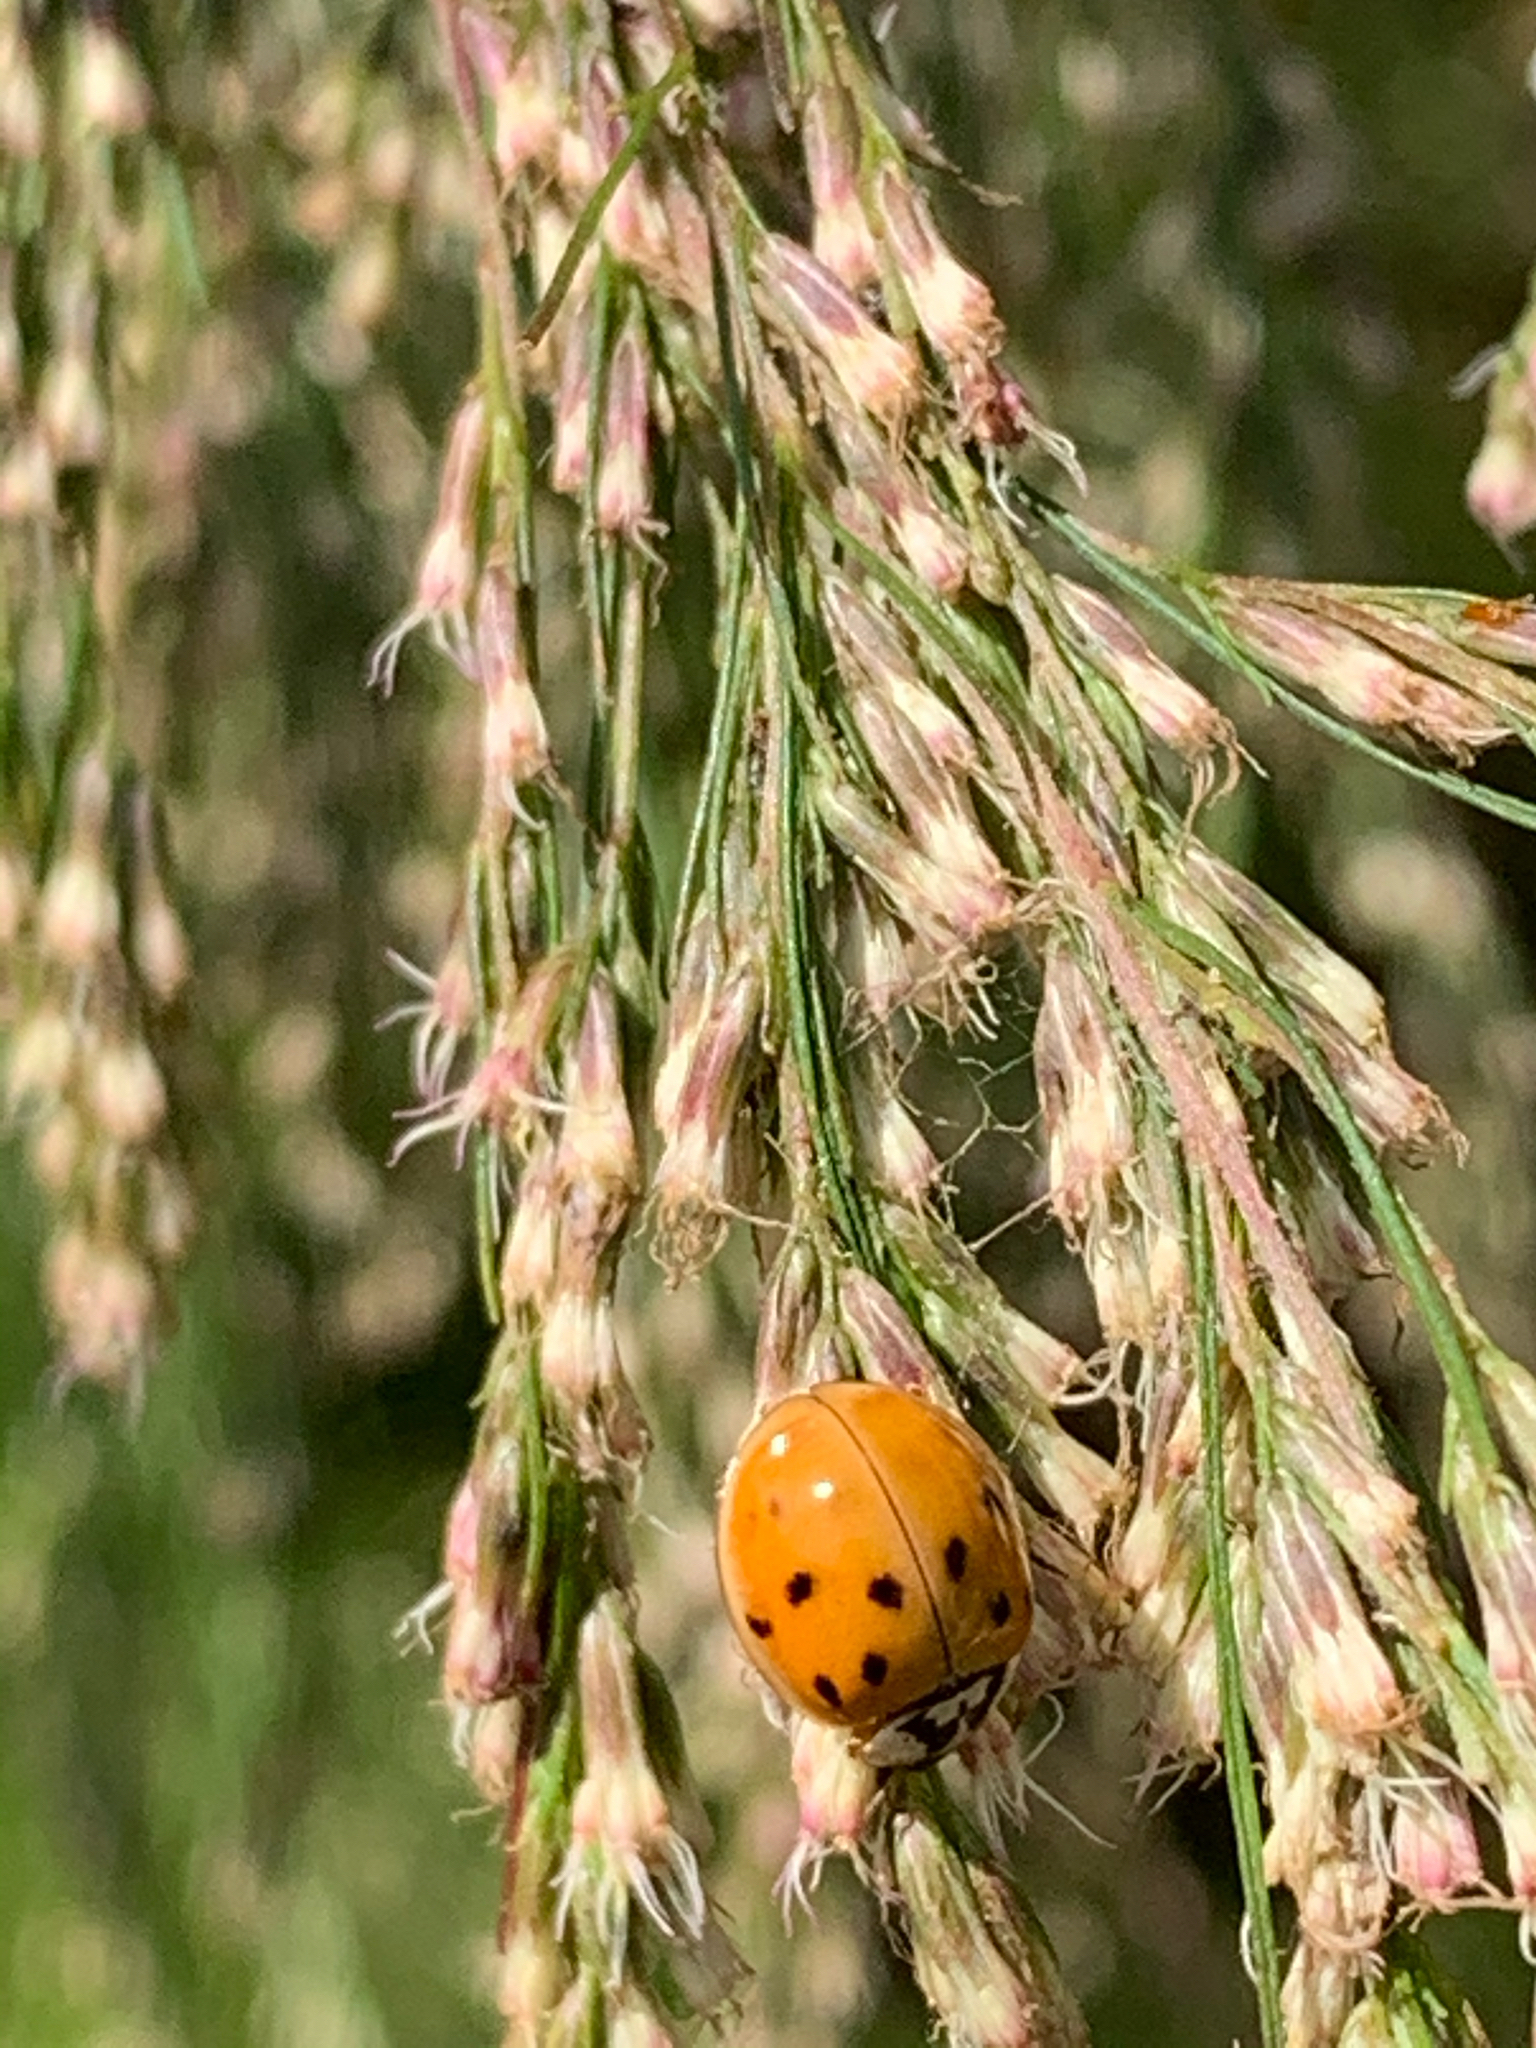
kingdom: Animalia
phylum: Arthropoda
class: Insecta
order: Coleoptera
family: Coccinellidae
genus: Harmonia
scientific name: Harmonia axyridis
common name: Harlequin ladybird
